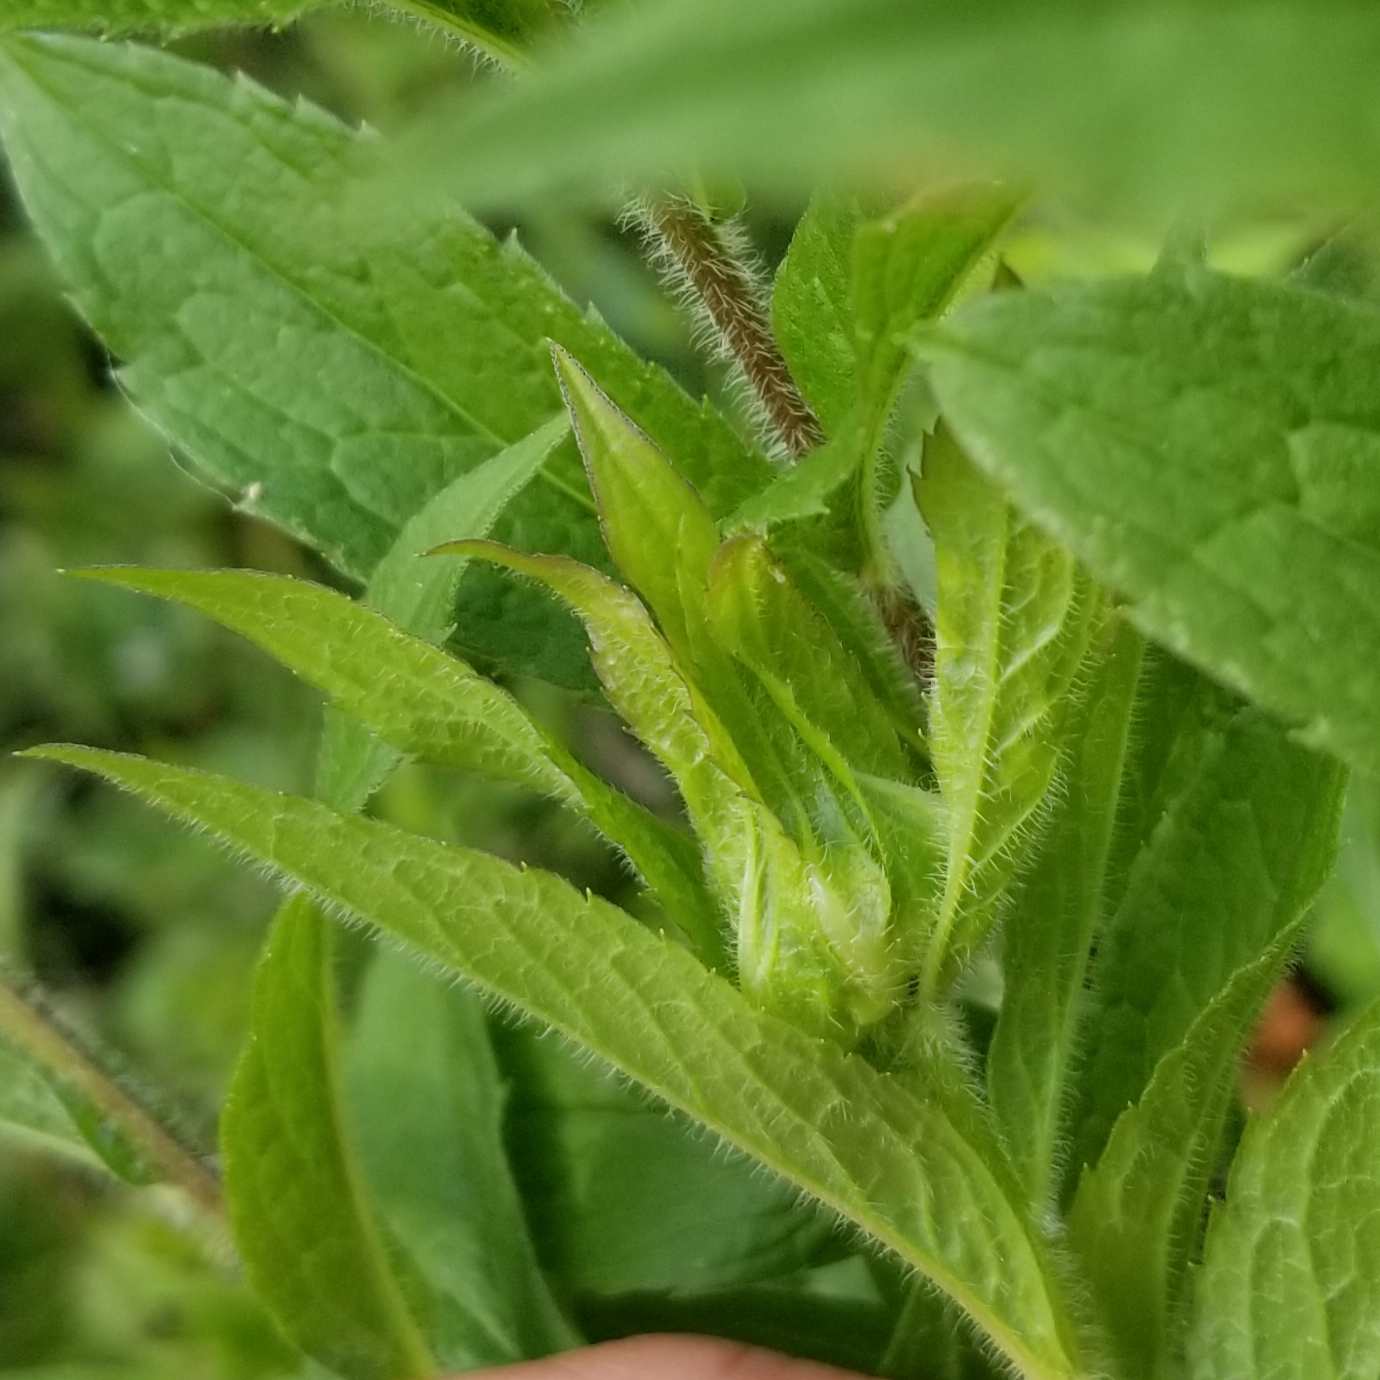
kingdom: Animalia
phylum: Arthropoda
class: Insecta
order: Diptera
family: Cecidomyiidae
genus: Dasineura
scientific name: Dasineura folliculi
